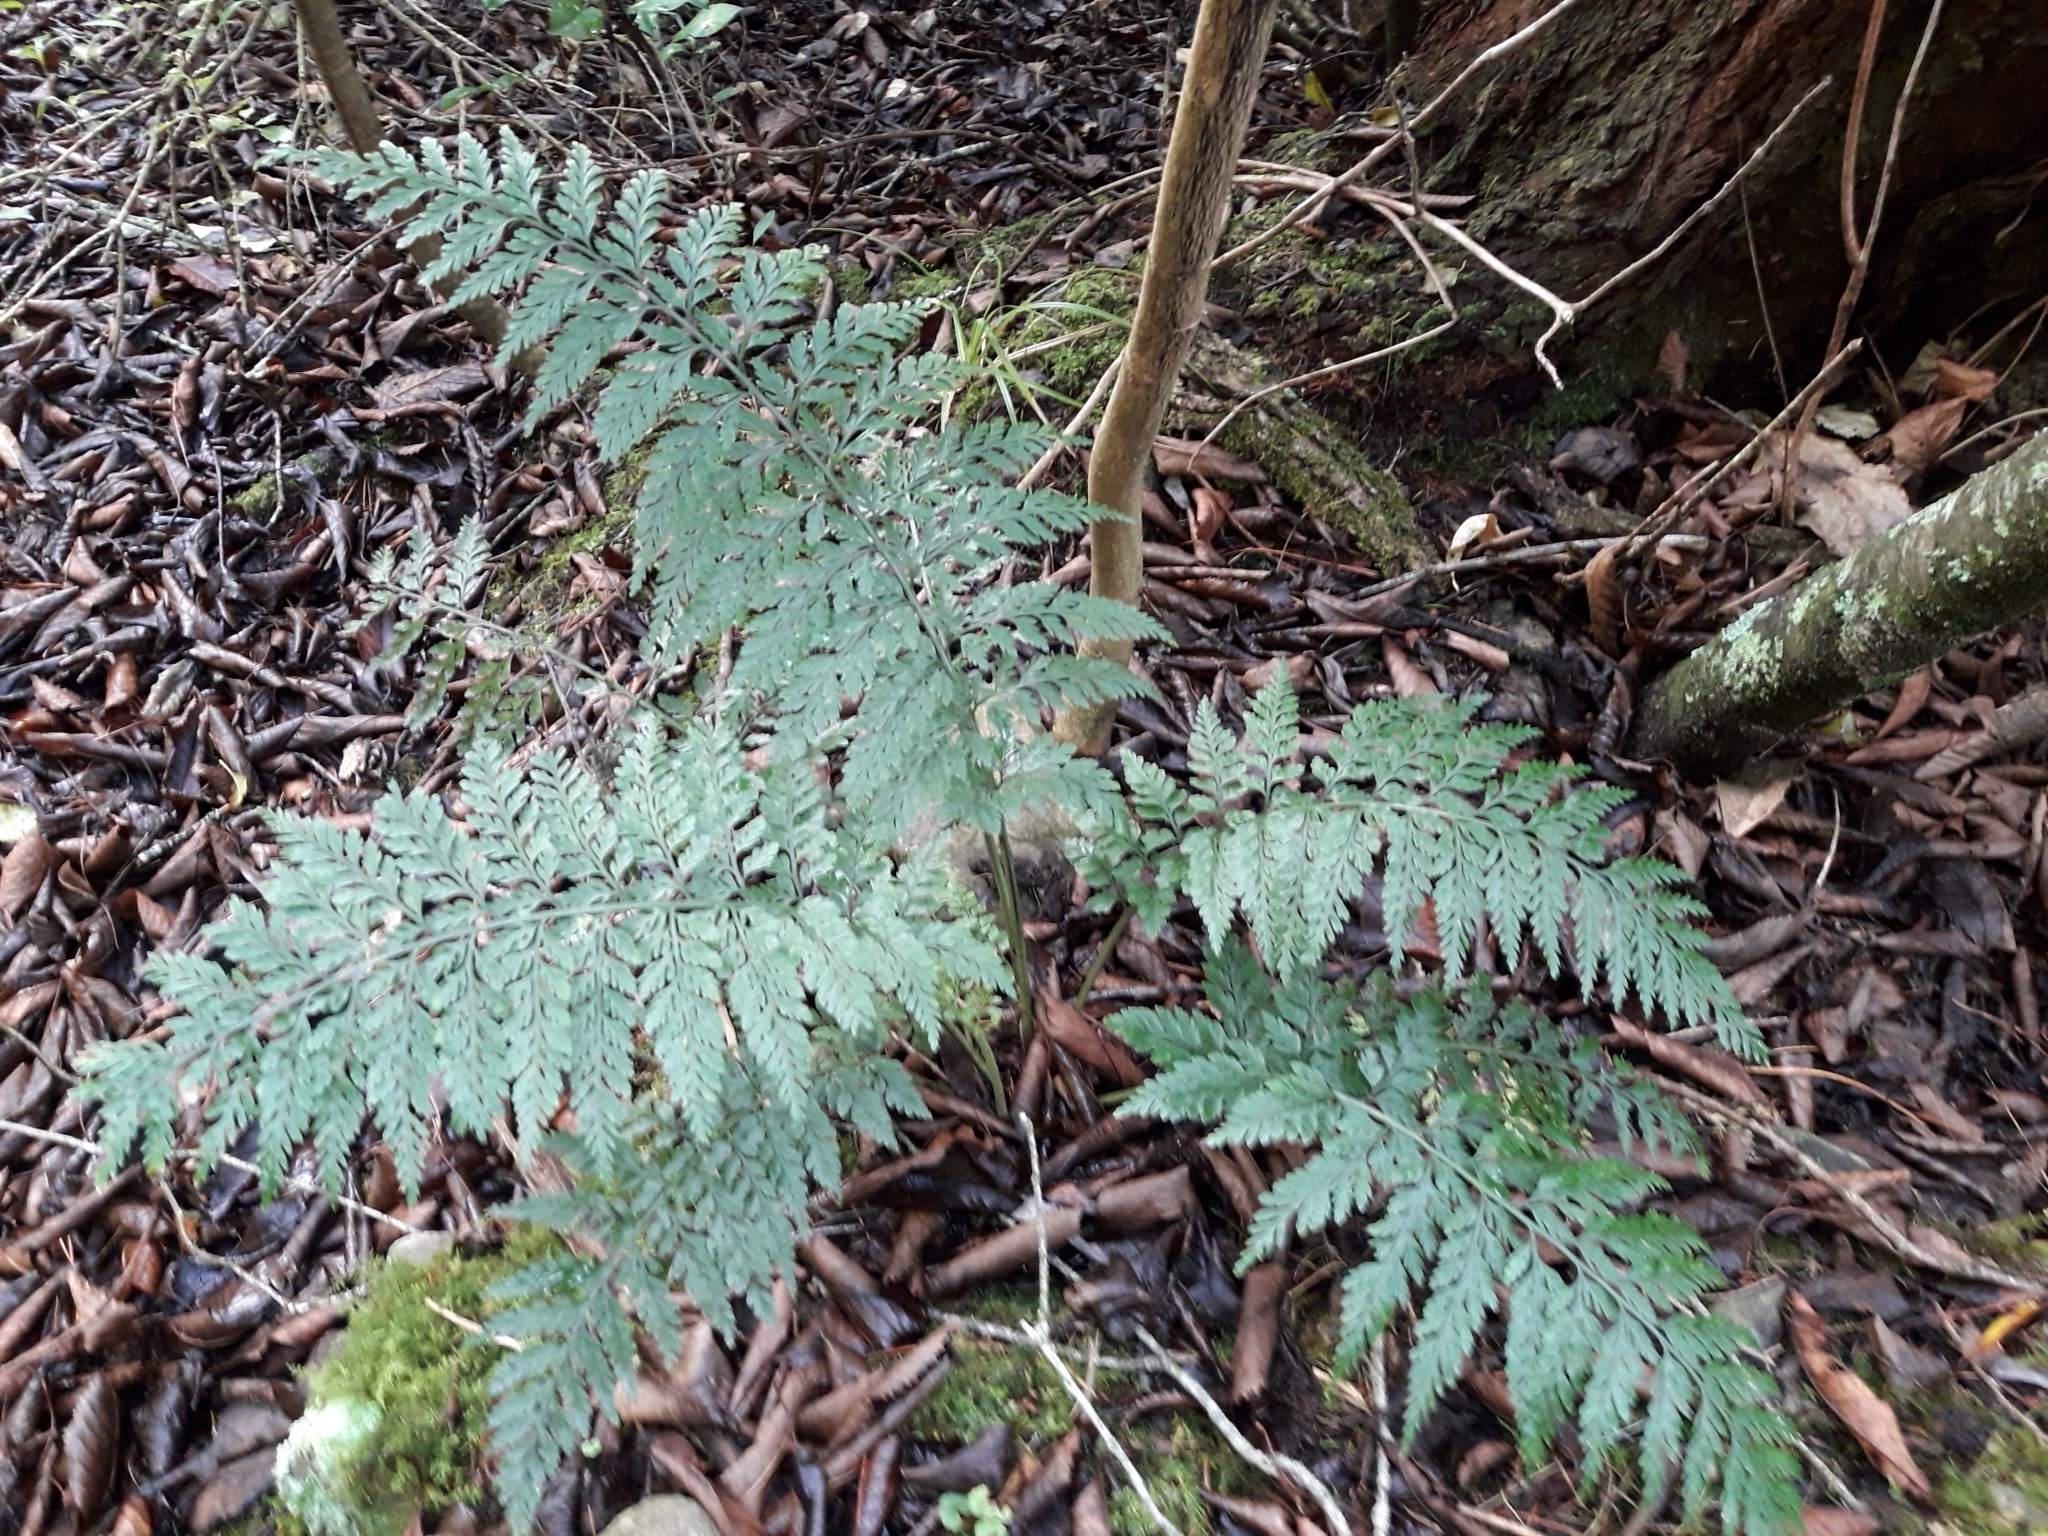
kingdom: Plantae
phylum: Tracheophyta
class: Polypodiopsida
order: Polypodiales
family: Aspleniaceae
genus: Asplenium
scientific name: Asplenium
